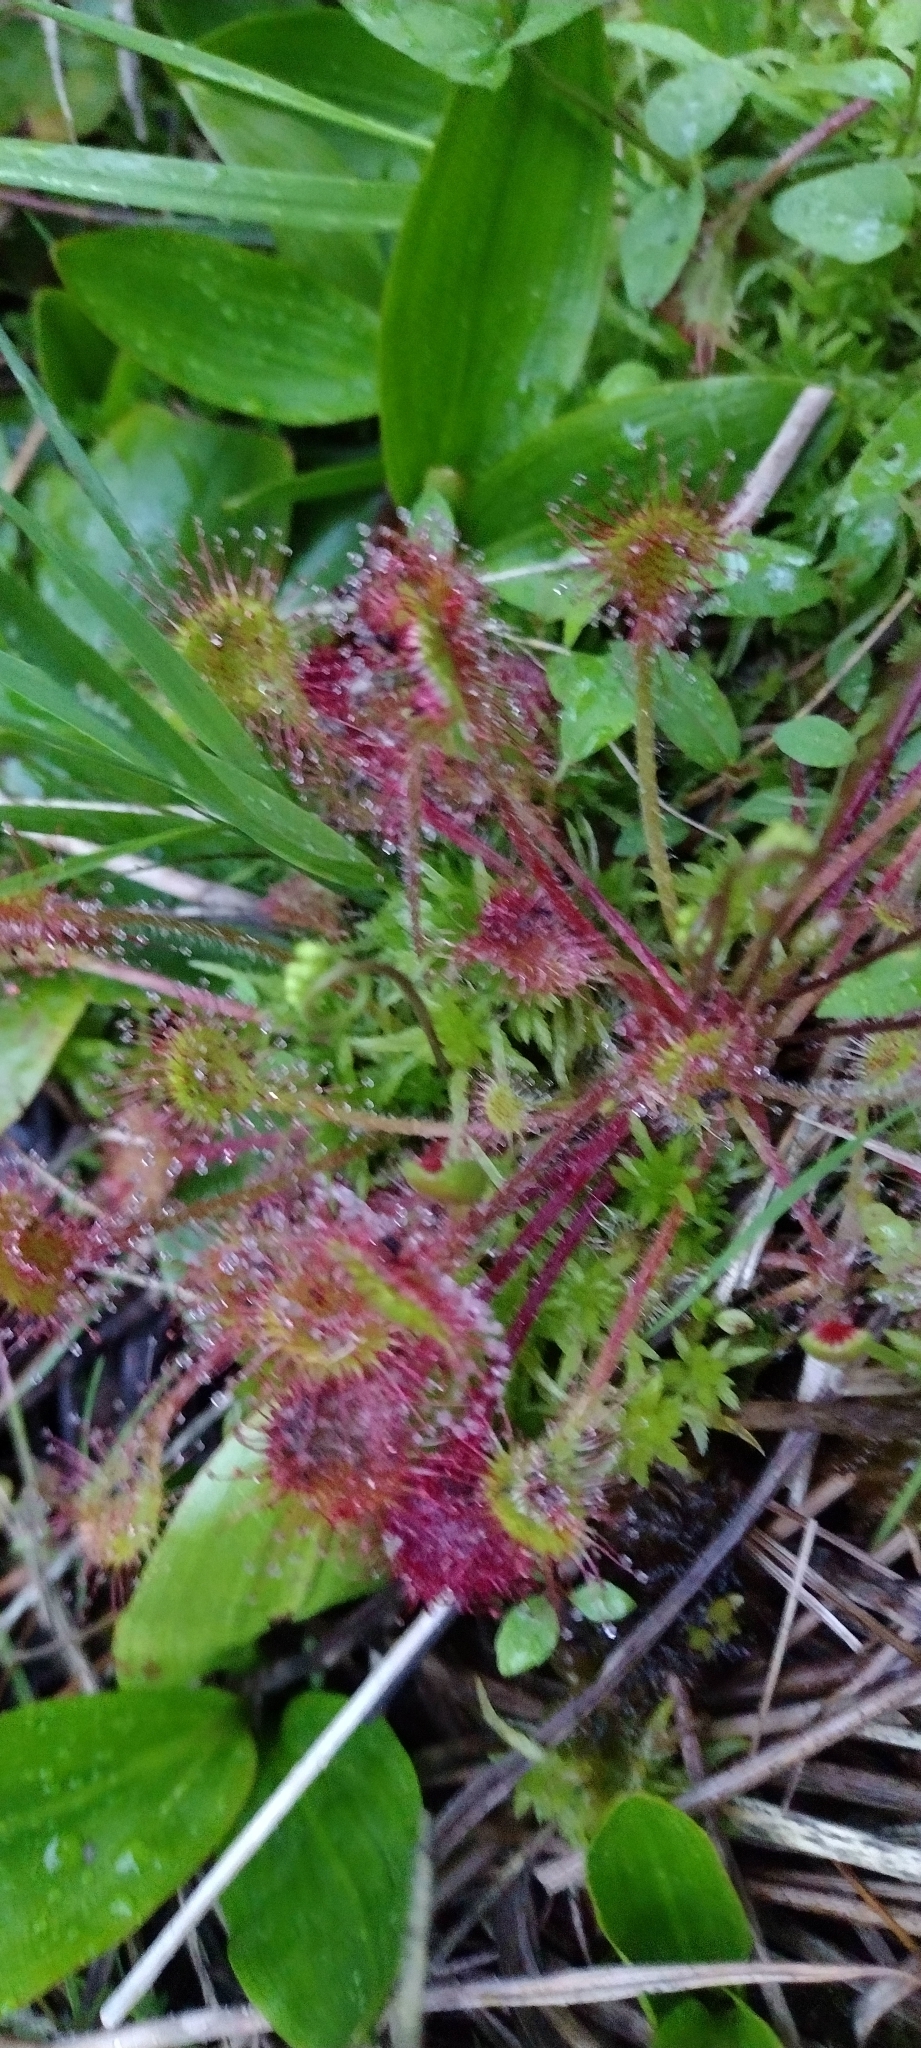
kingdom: Plantae
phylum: Tracheophyta
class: Magnoliopsida
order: Caryophyllales
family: Droseraceae
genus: Drosera
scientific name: Drosera rotundifolia
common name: Round-leaved sundew
